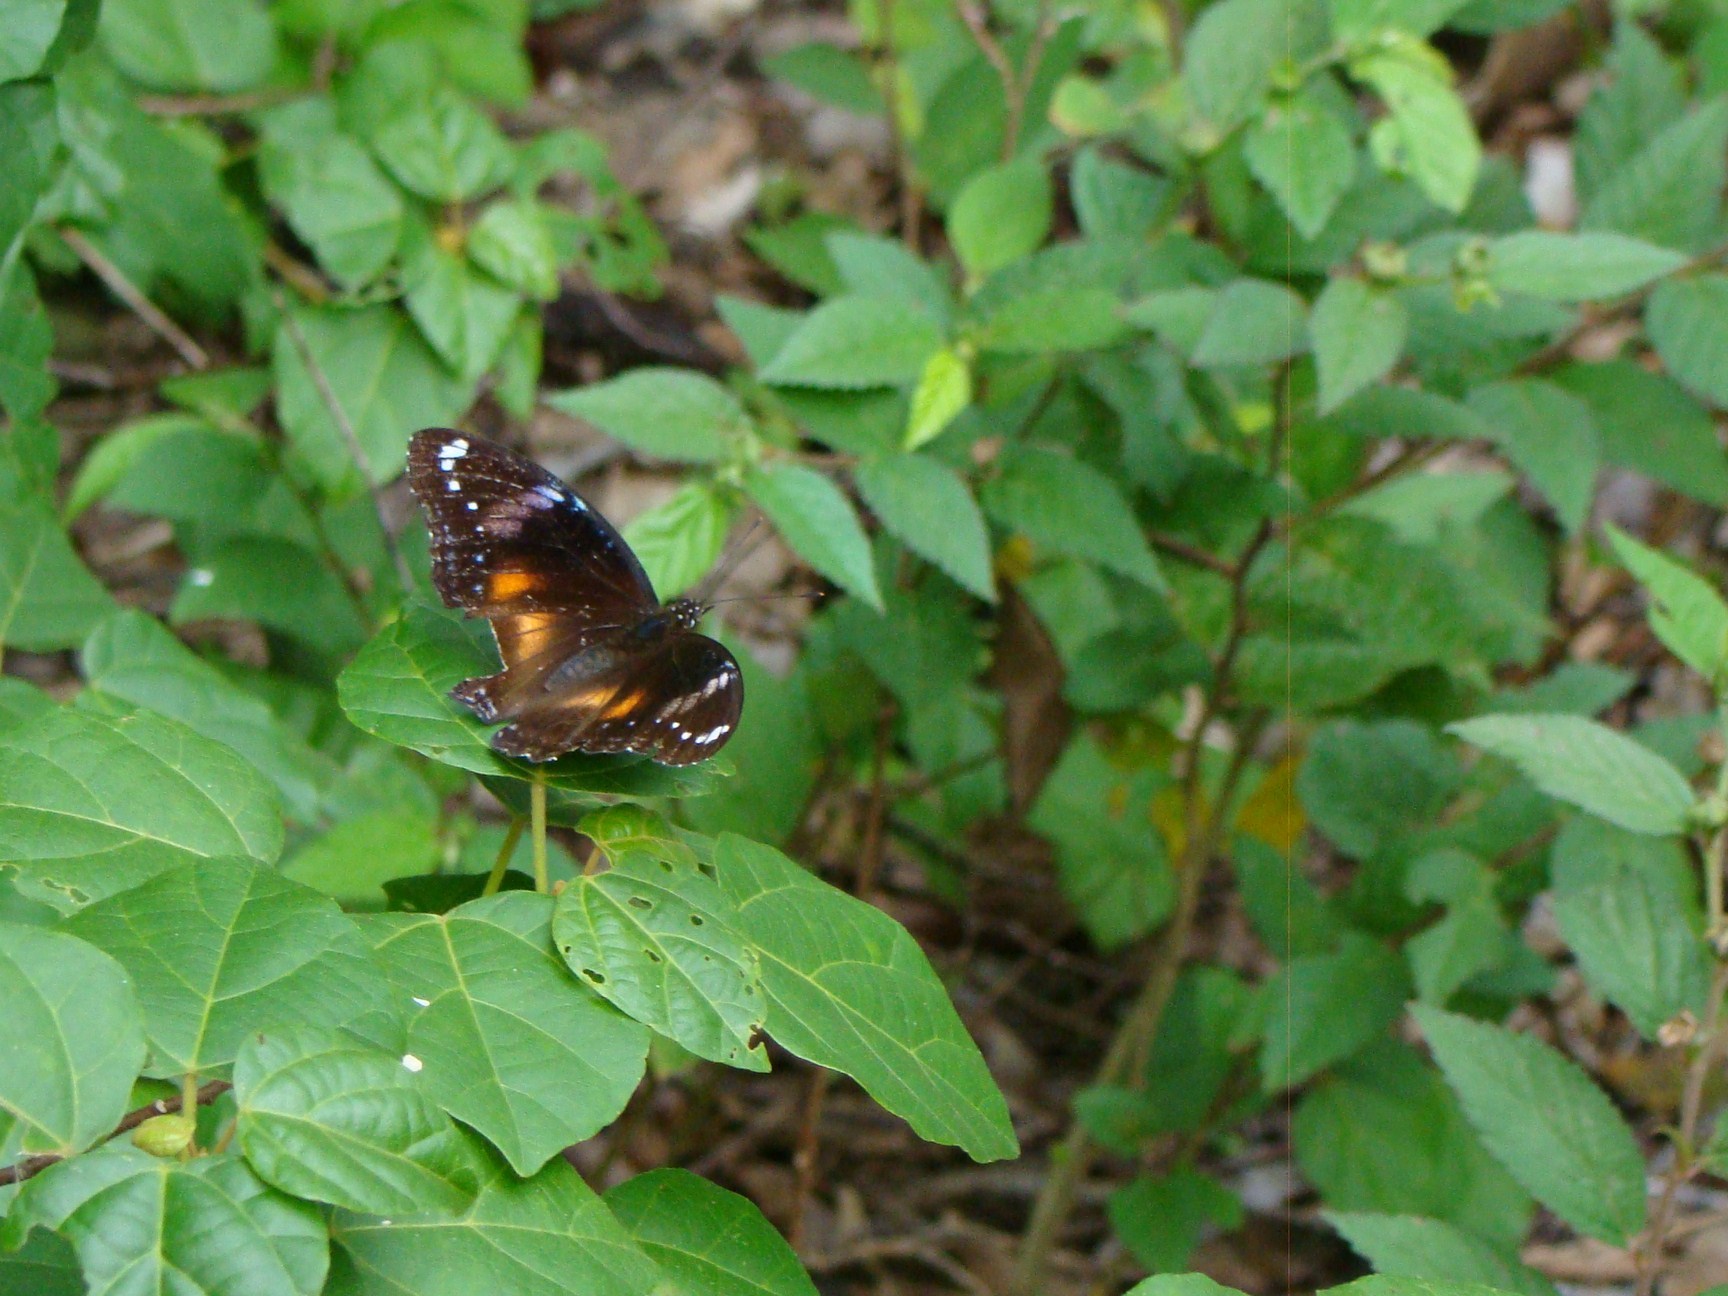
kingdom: Animalia
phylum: Arthropoda
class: Insecta
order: Lepidoptera
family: Nymphalidae
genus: Hypolimnas
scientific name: Hypolimnas bolina
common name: Great eggfly
